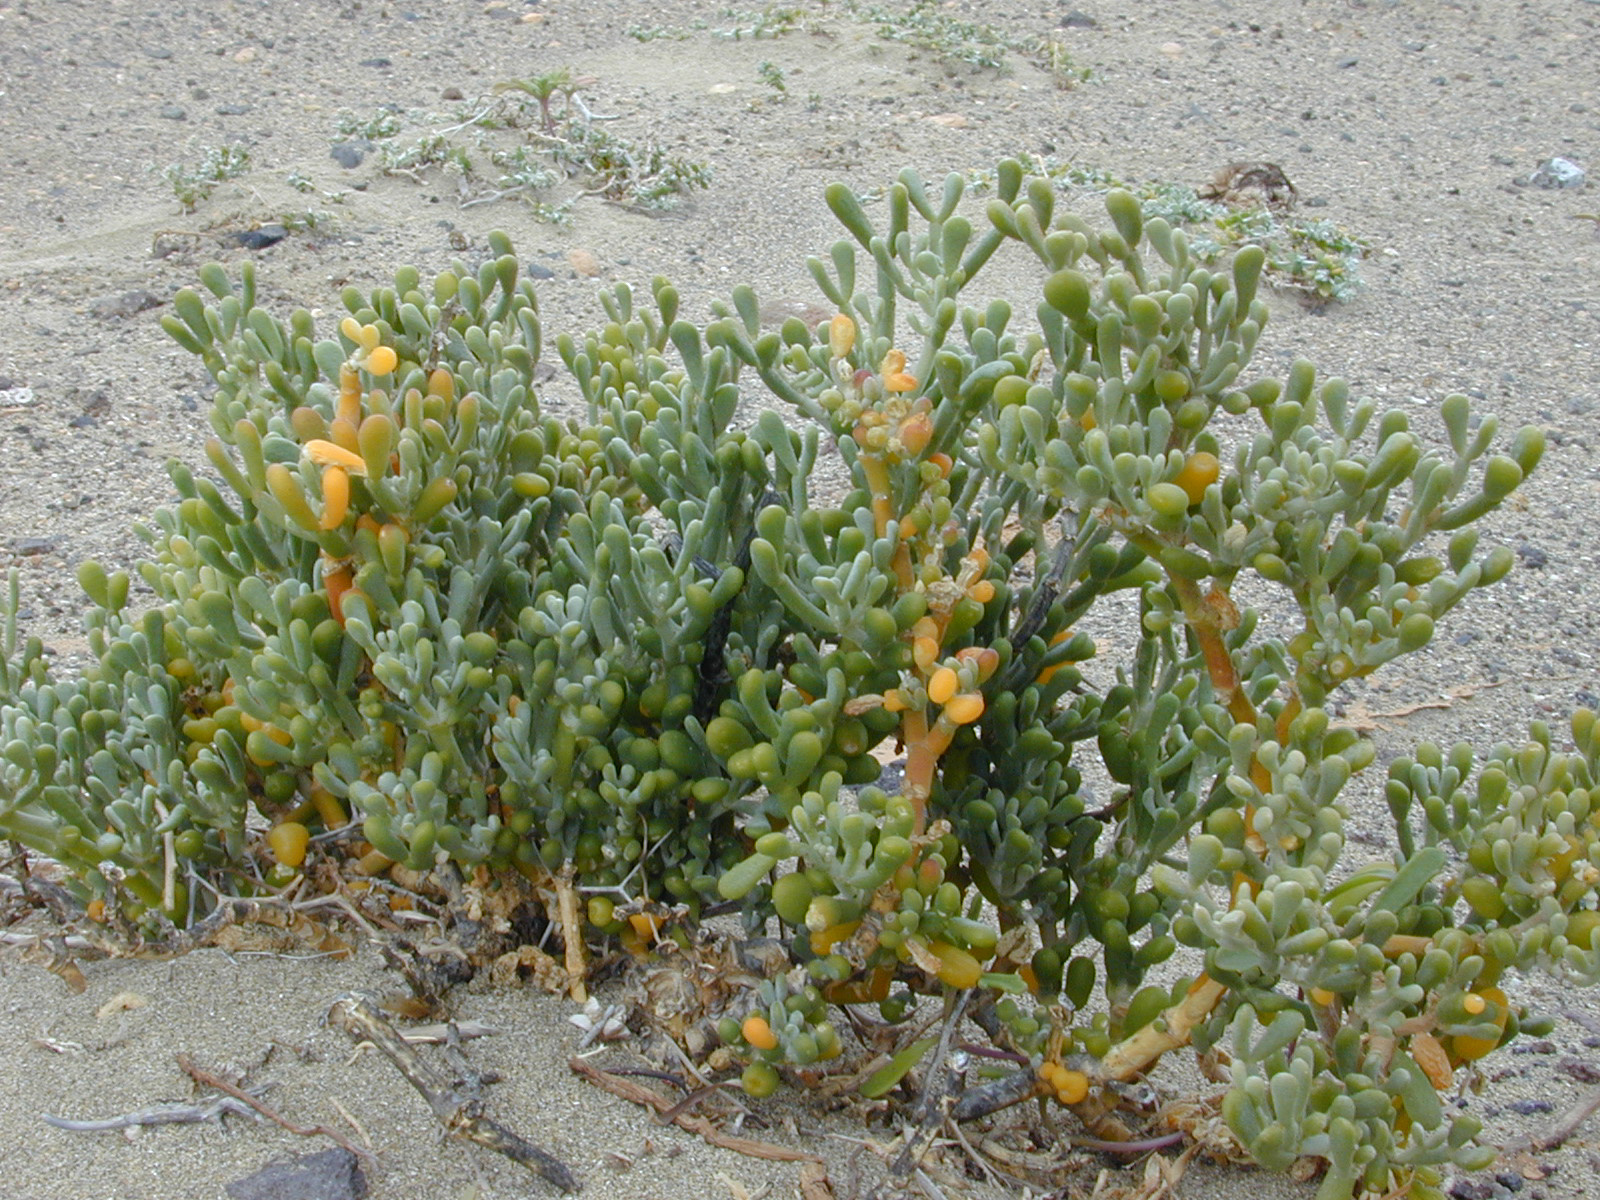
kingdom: Plantae
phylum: Tracheophyta
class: Magnoliopsida
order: Zygophyllales
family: Zygophyllaceae
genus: Tetraena
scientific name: Tetraena fontanesii
